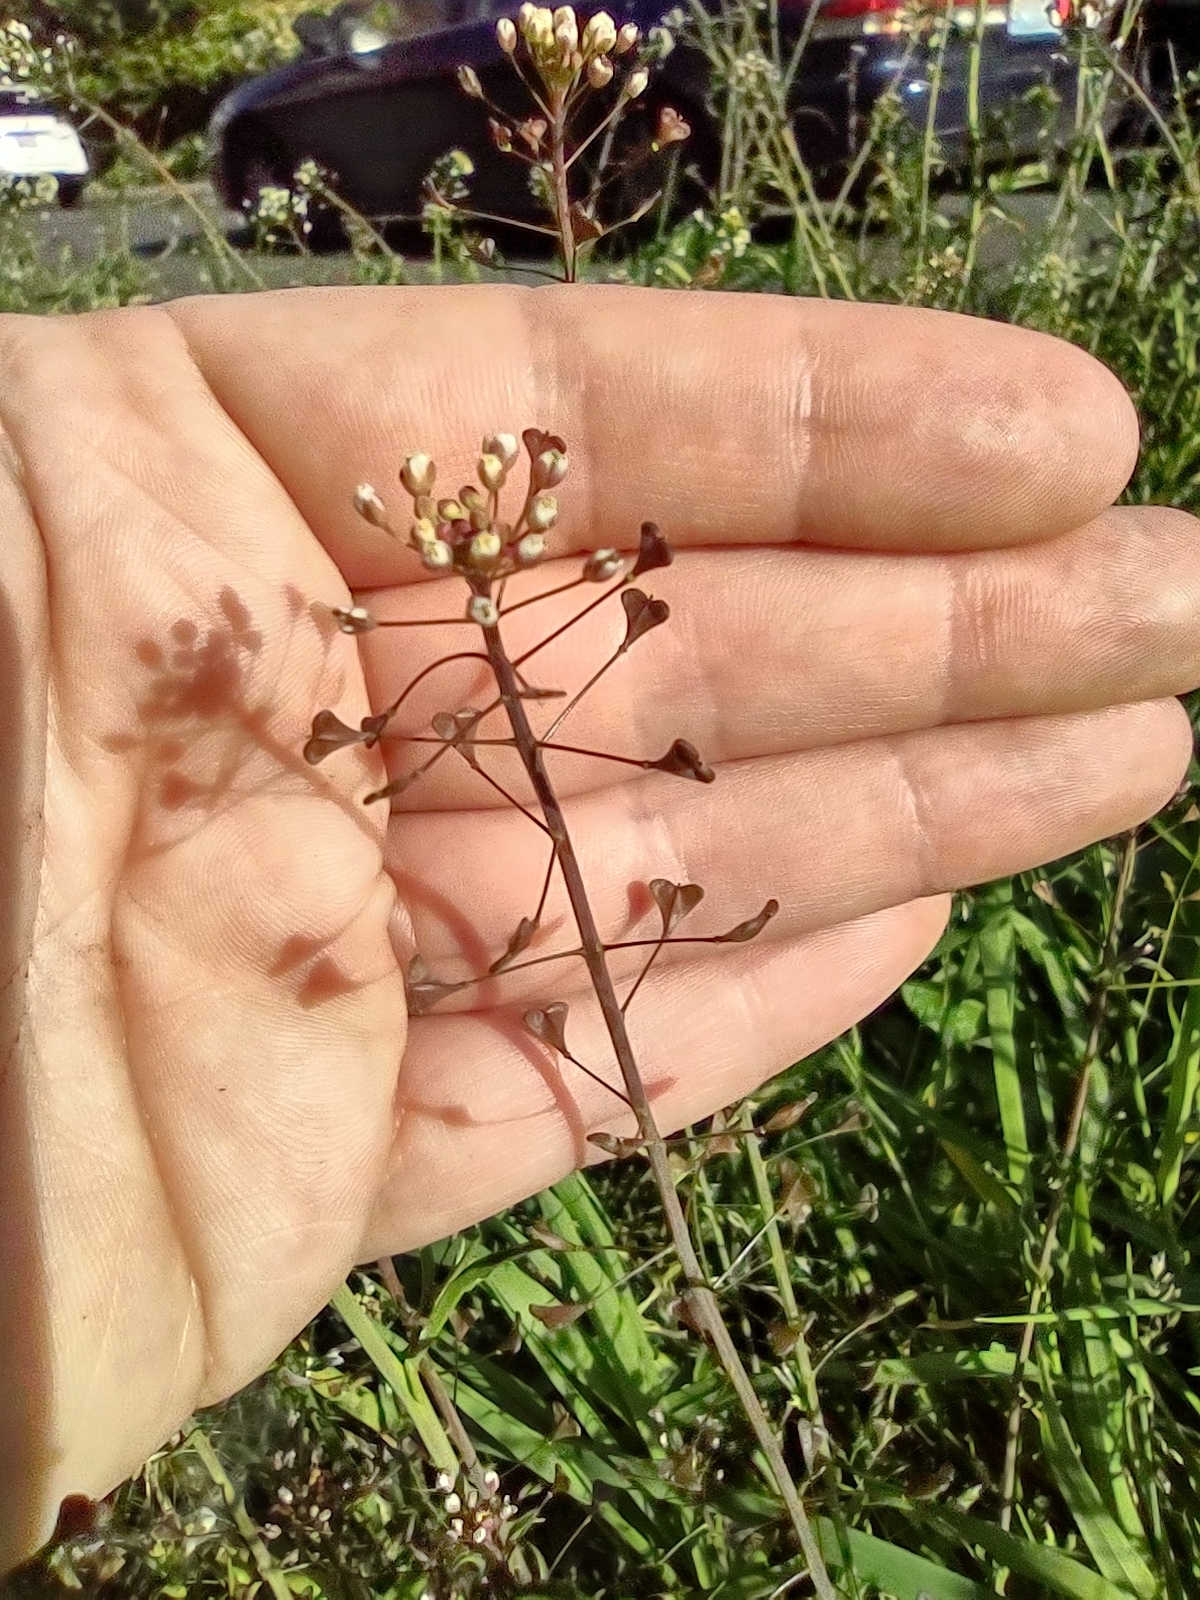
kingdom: Plantae
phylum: Tracheophyta
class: Magnoliopsida
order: Brassicales
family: Brassicaceae
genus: Capsella
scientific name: Capsella bursa-pastoris
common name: Shepherd's purse
